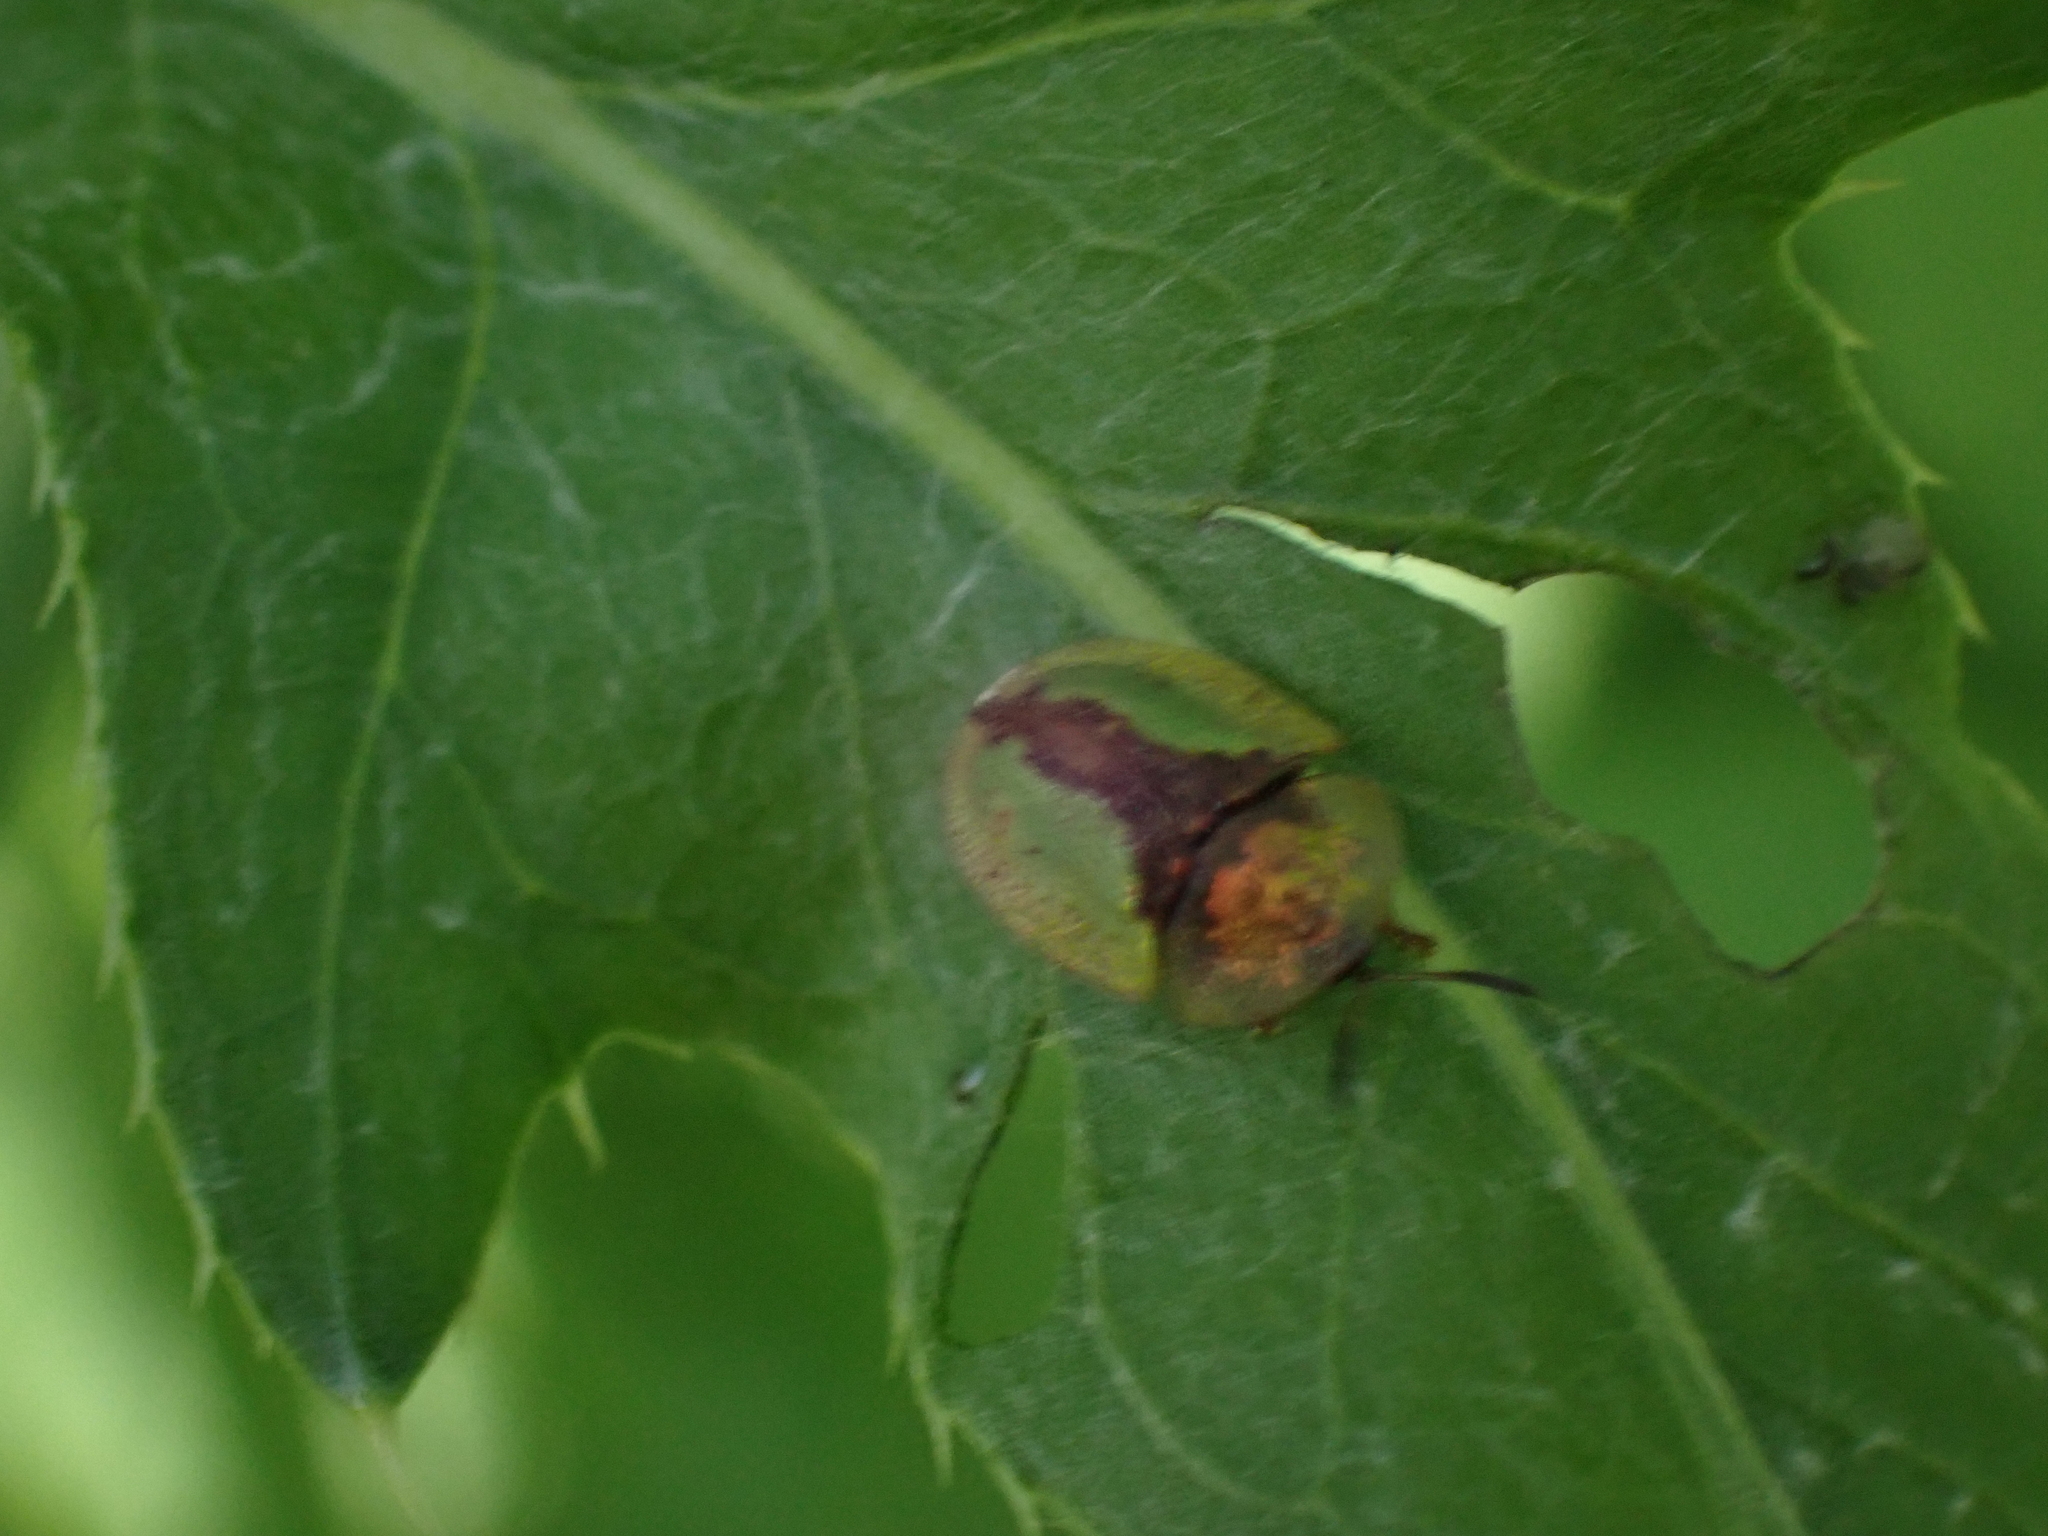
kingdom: Animalia
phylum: Arthropoda
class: Insecta
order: Coleoptera
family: Chrysomelidae
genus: Cassida
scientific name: Cassida vibex
